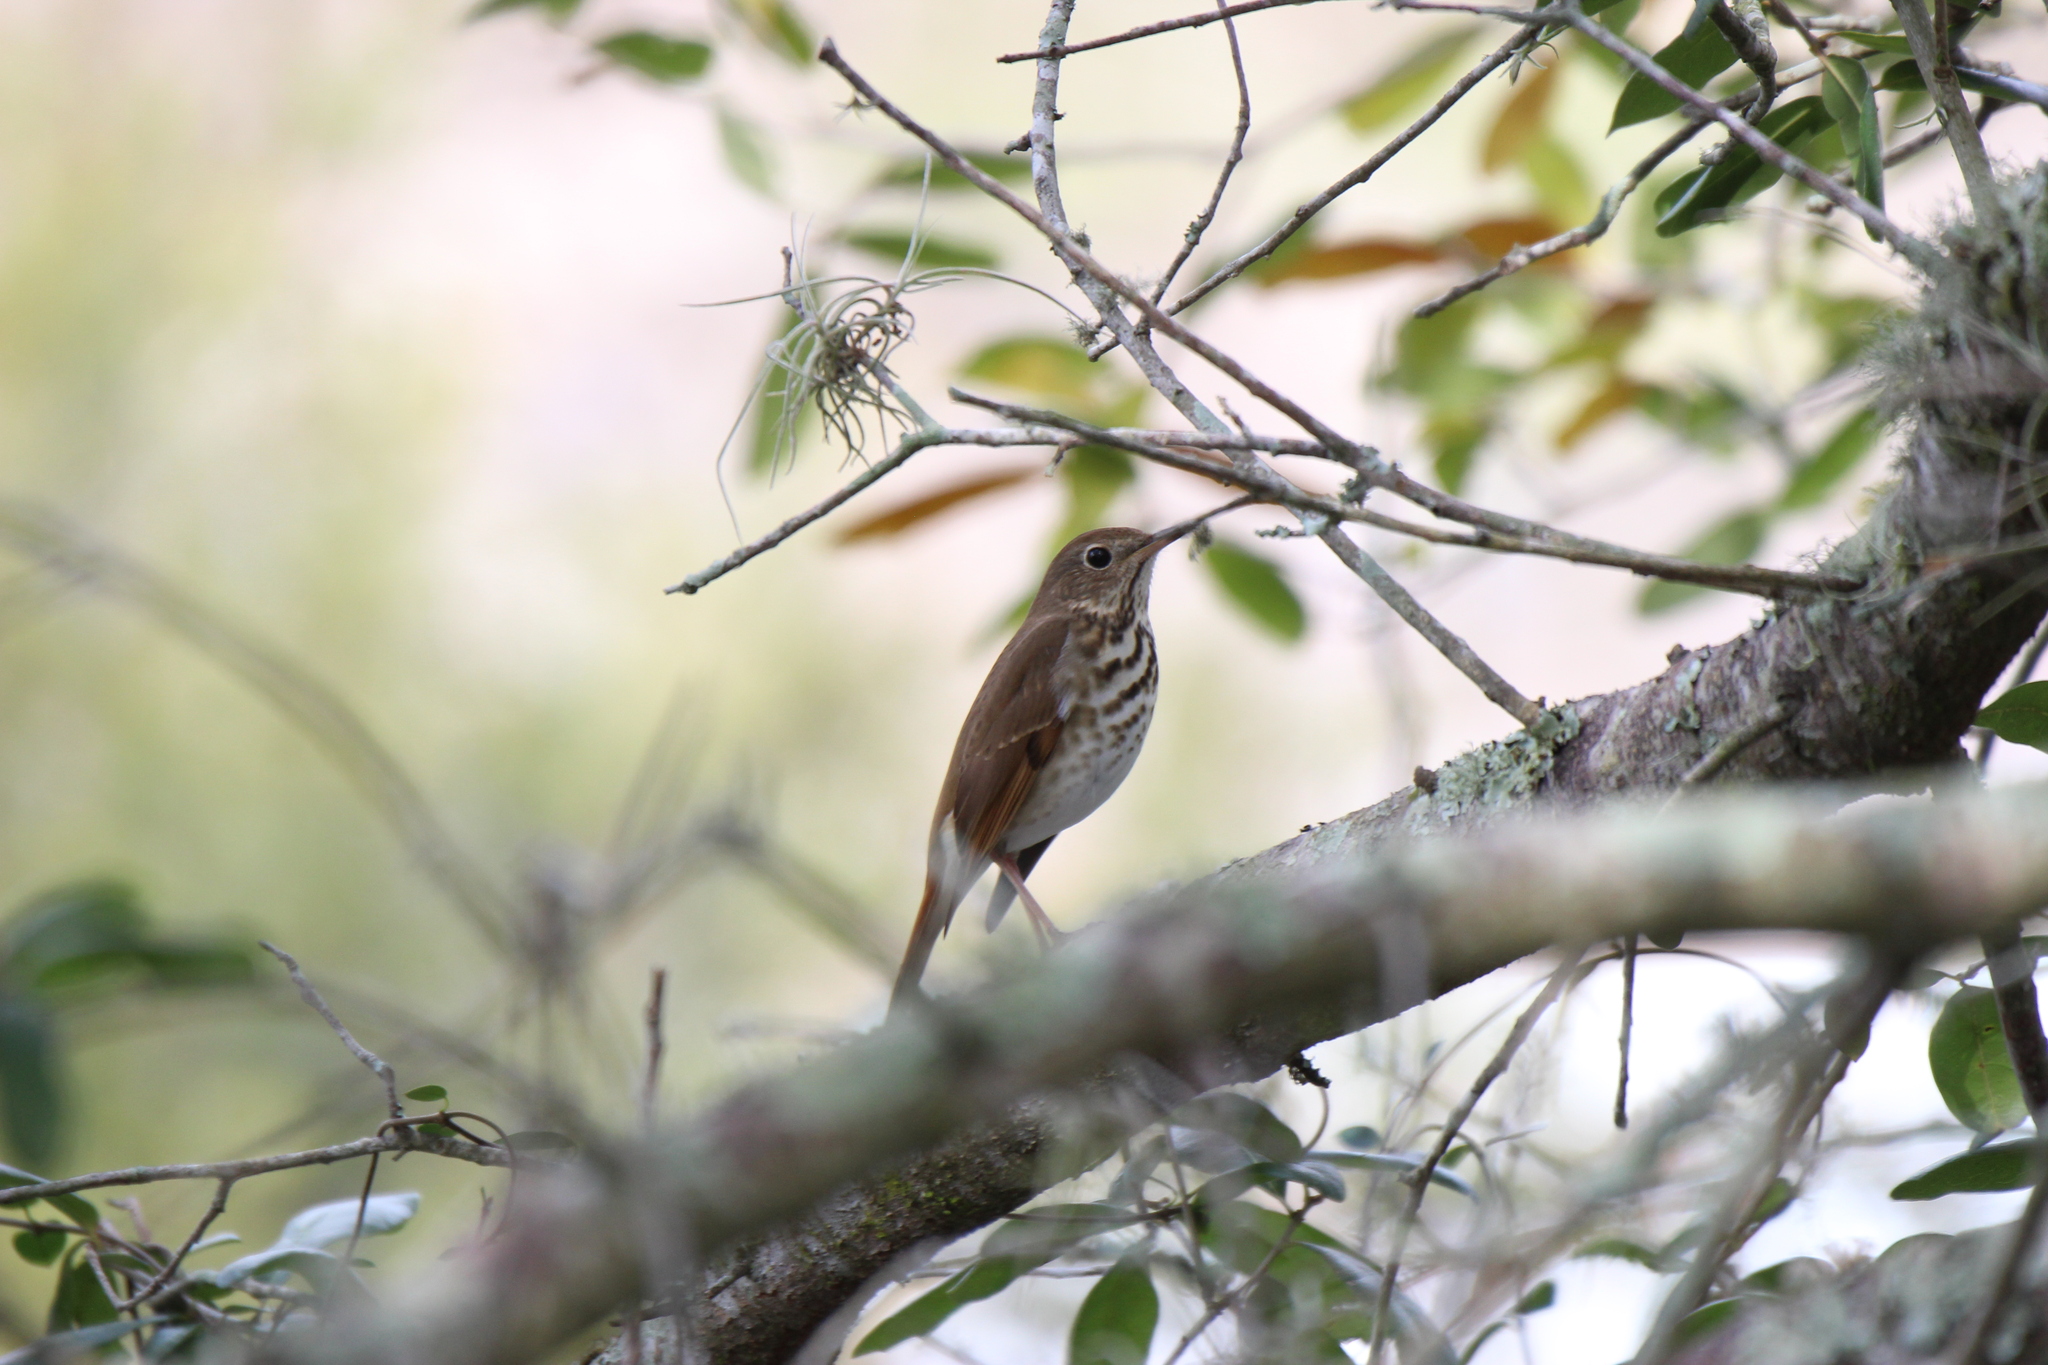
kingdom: Animalia
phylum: Chordata
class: Aves
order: Passeriformes
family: Turdidae
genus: Catharus
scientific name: Catharus guttatus
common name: Hermit thrush
